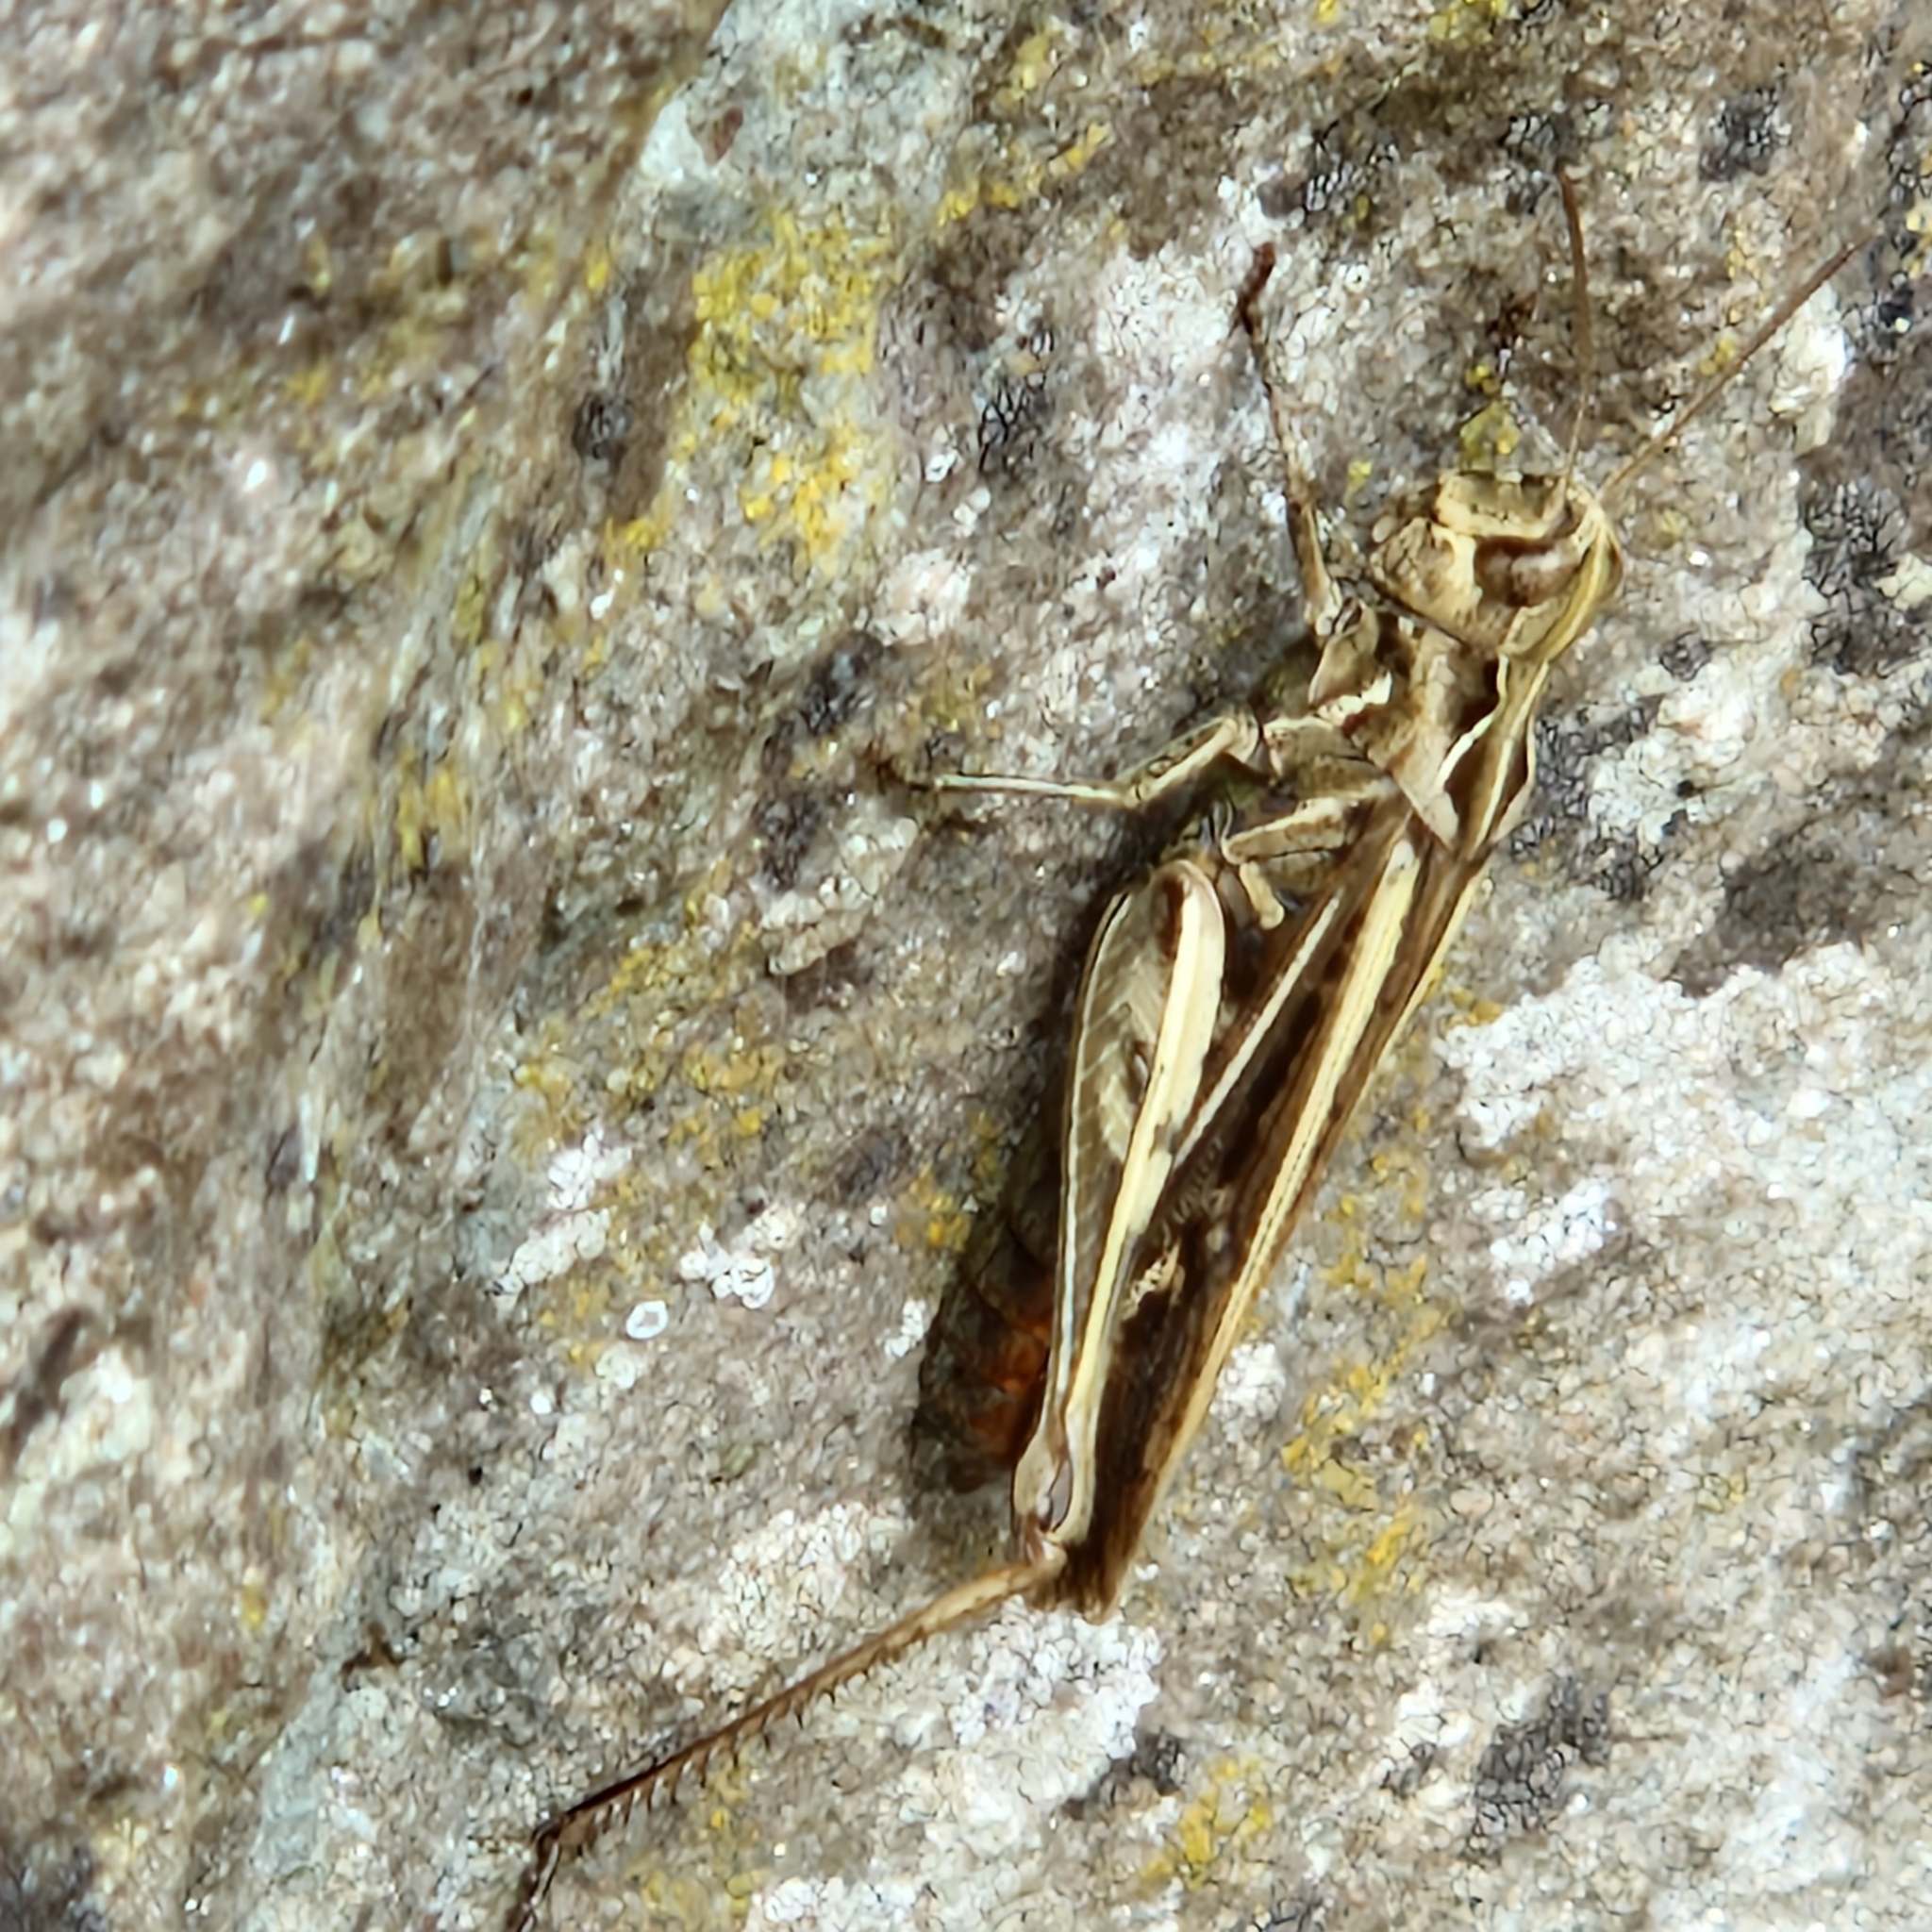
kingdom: Animalia
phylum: Arthropoda
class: Insecta
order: Orthoptera
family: Acrididae
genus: Chorthippus
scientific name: Chorthippus brunneus
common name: Field grasshopper
